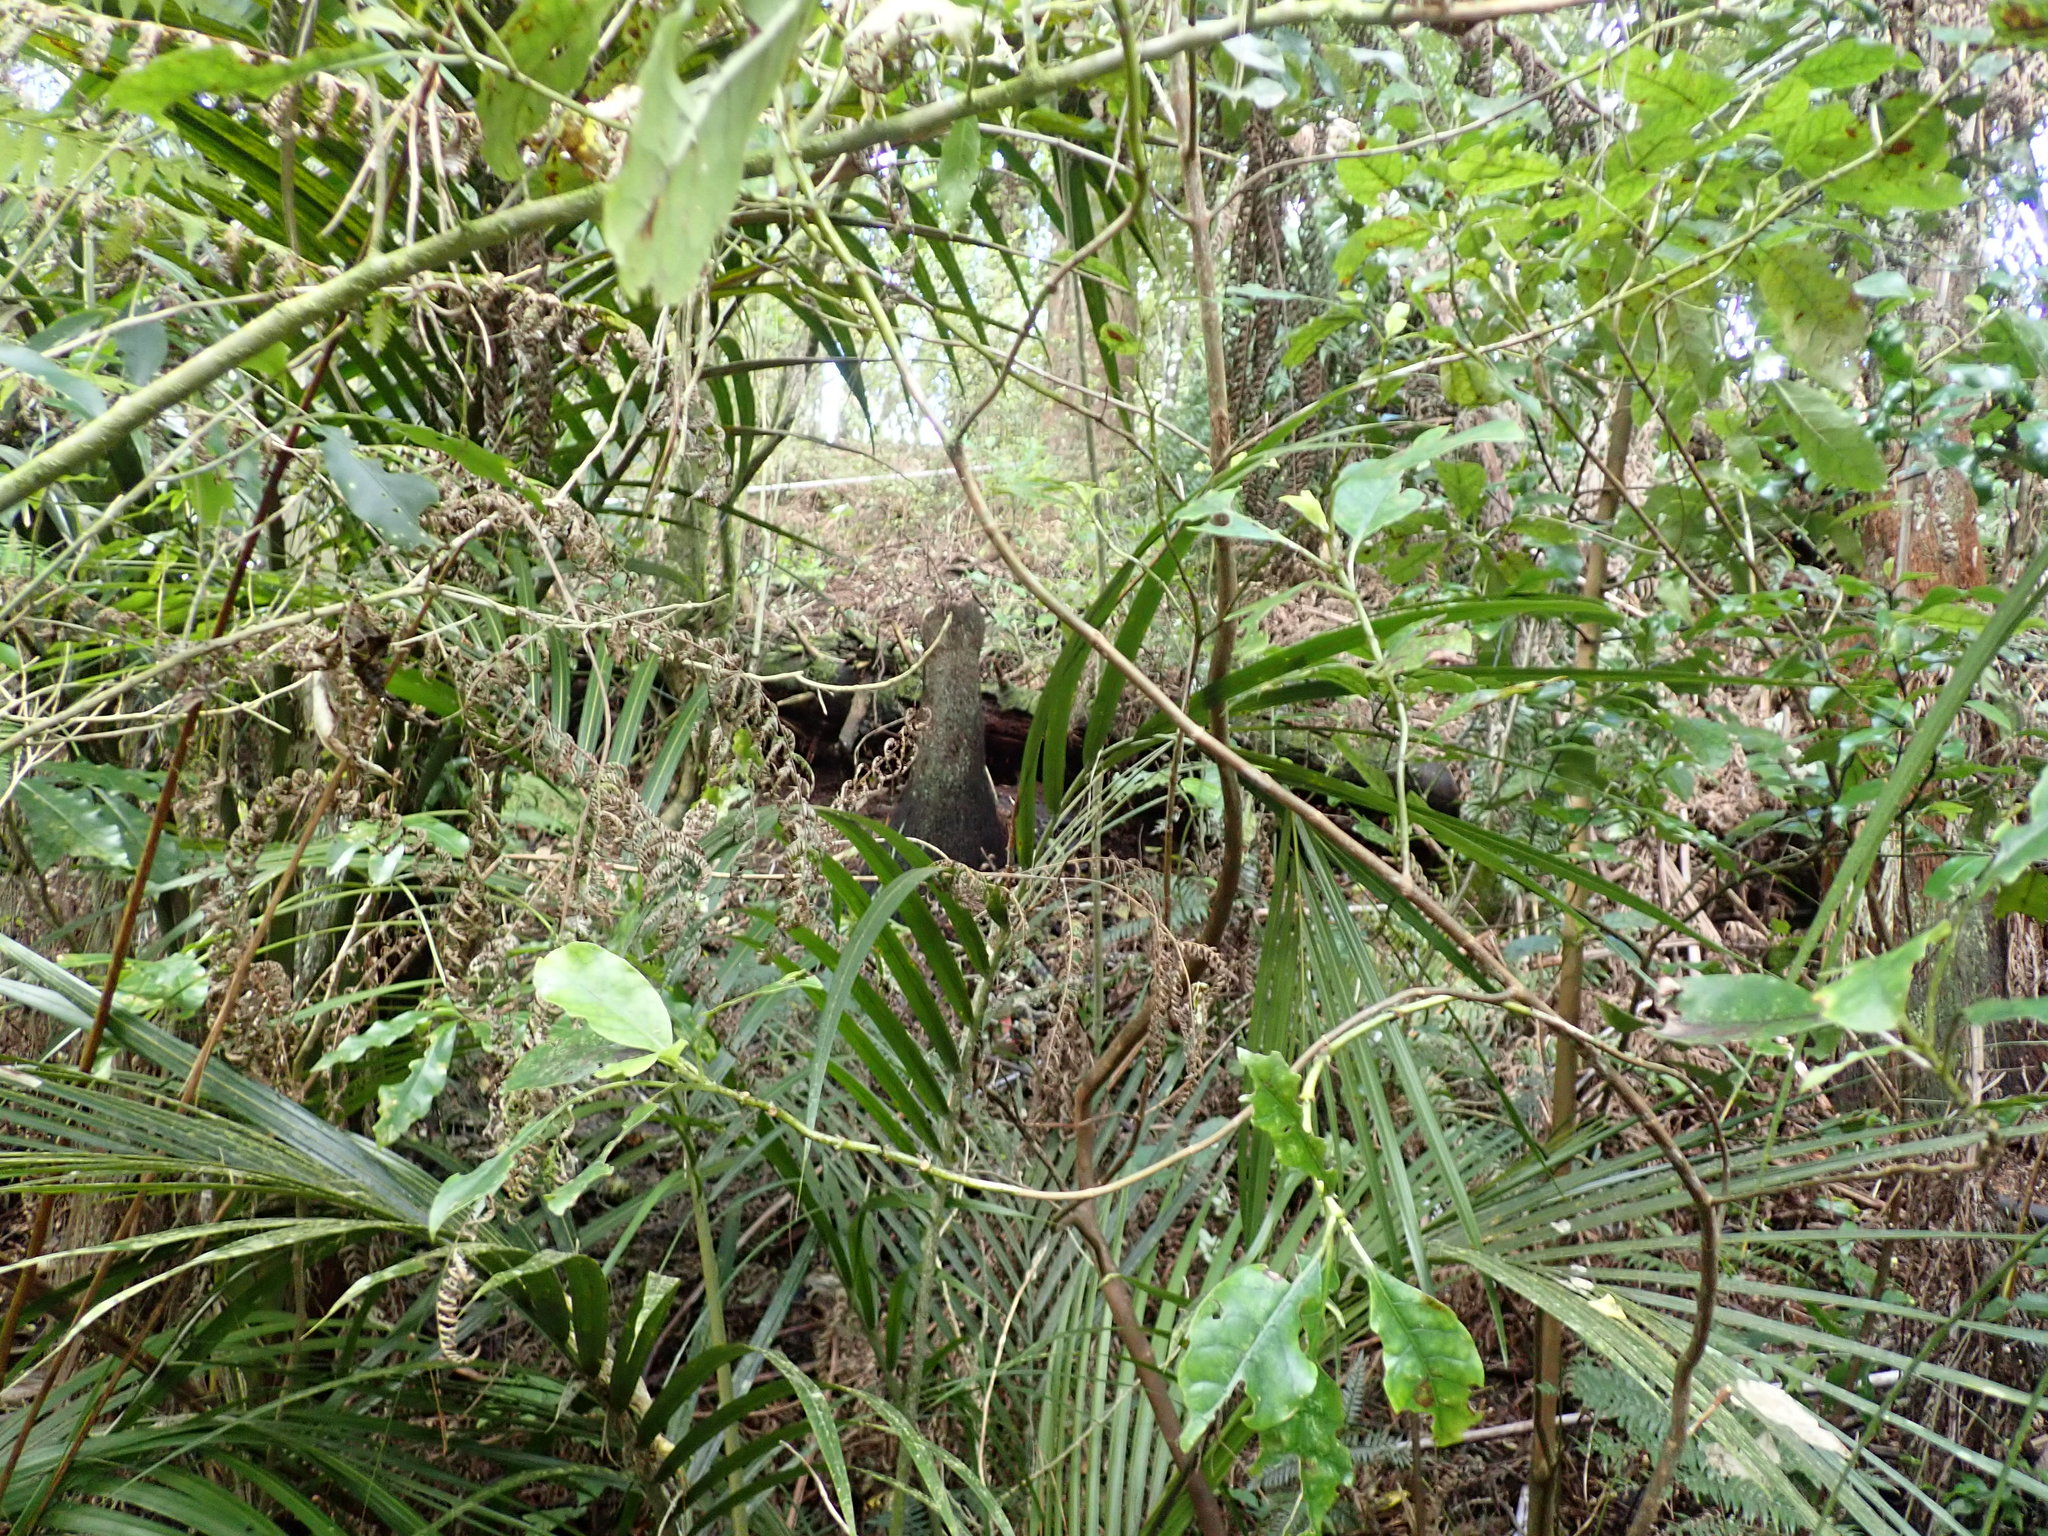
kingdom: Plantae
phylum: Tracheophyta
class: Liliopsida
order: Arecales
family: Arecaceae
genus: Rhopalostylis
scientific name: Rhopalostylis sapida
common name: Feather-duster palm
